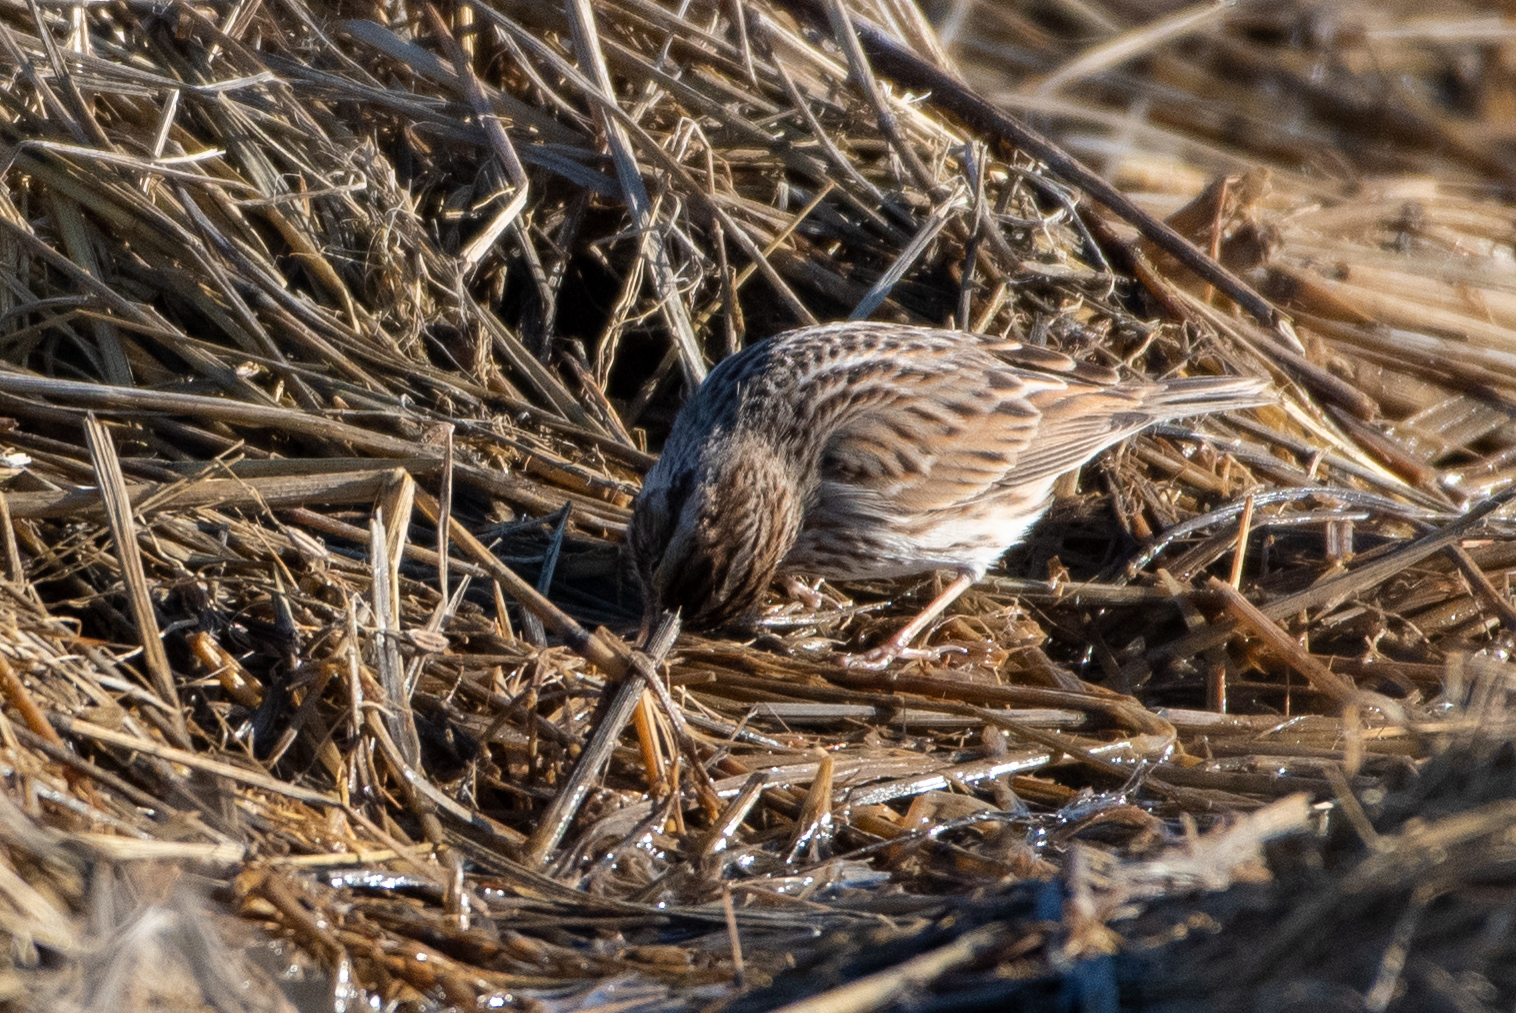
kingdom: Animalia
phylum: Chordata
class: Aves
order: Passeriformes
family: Passerellidae
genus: Passerculus
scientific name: Passerculus sandwichensis
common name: Savannah sparrow
